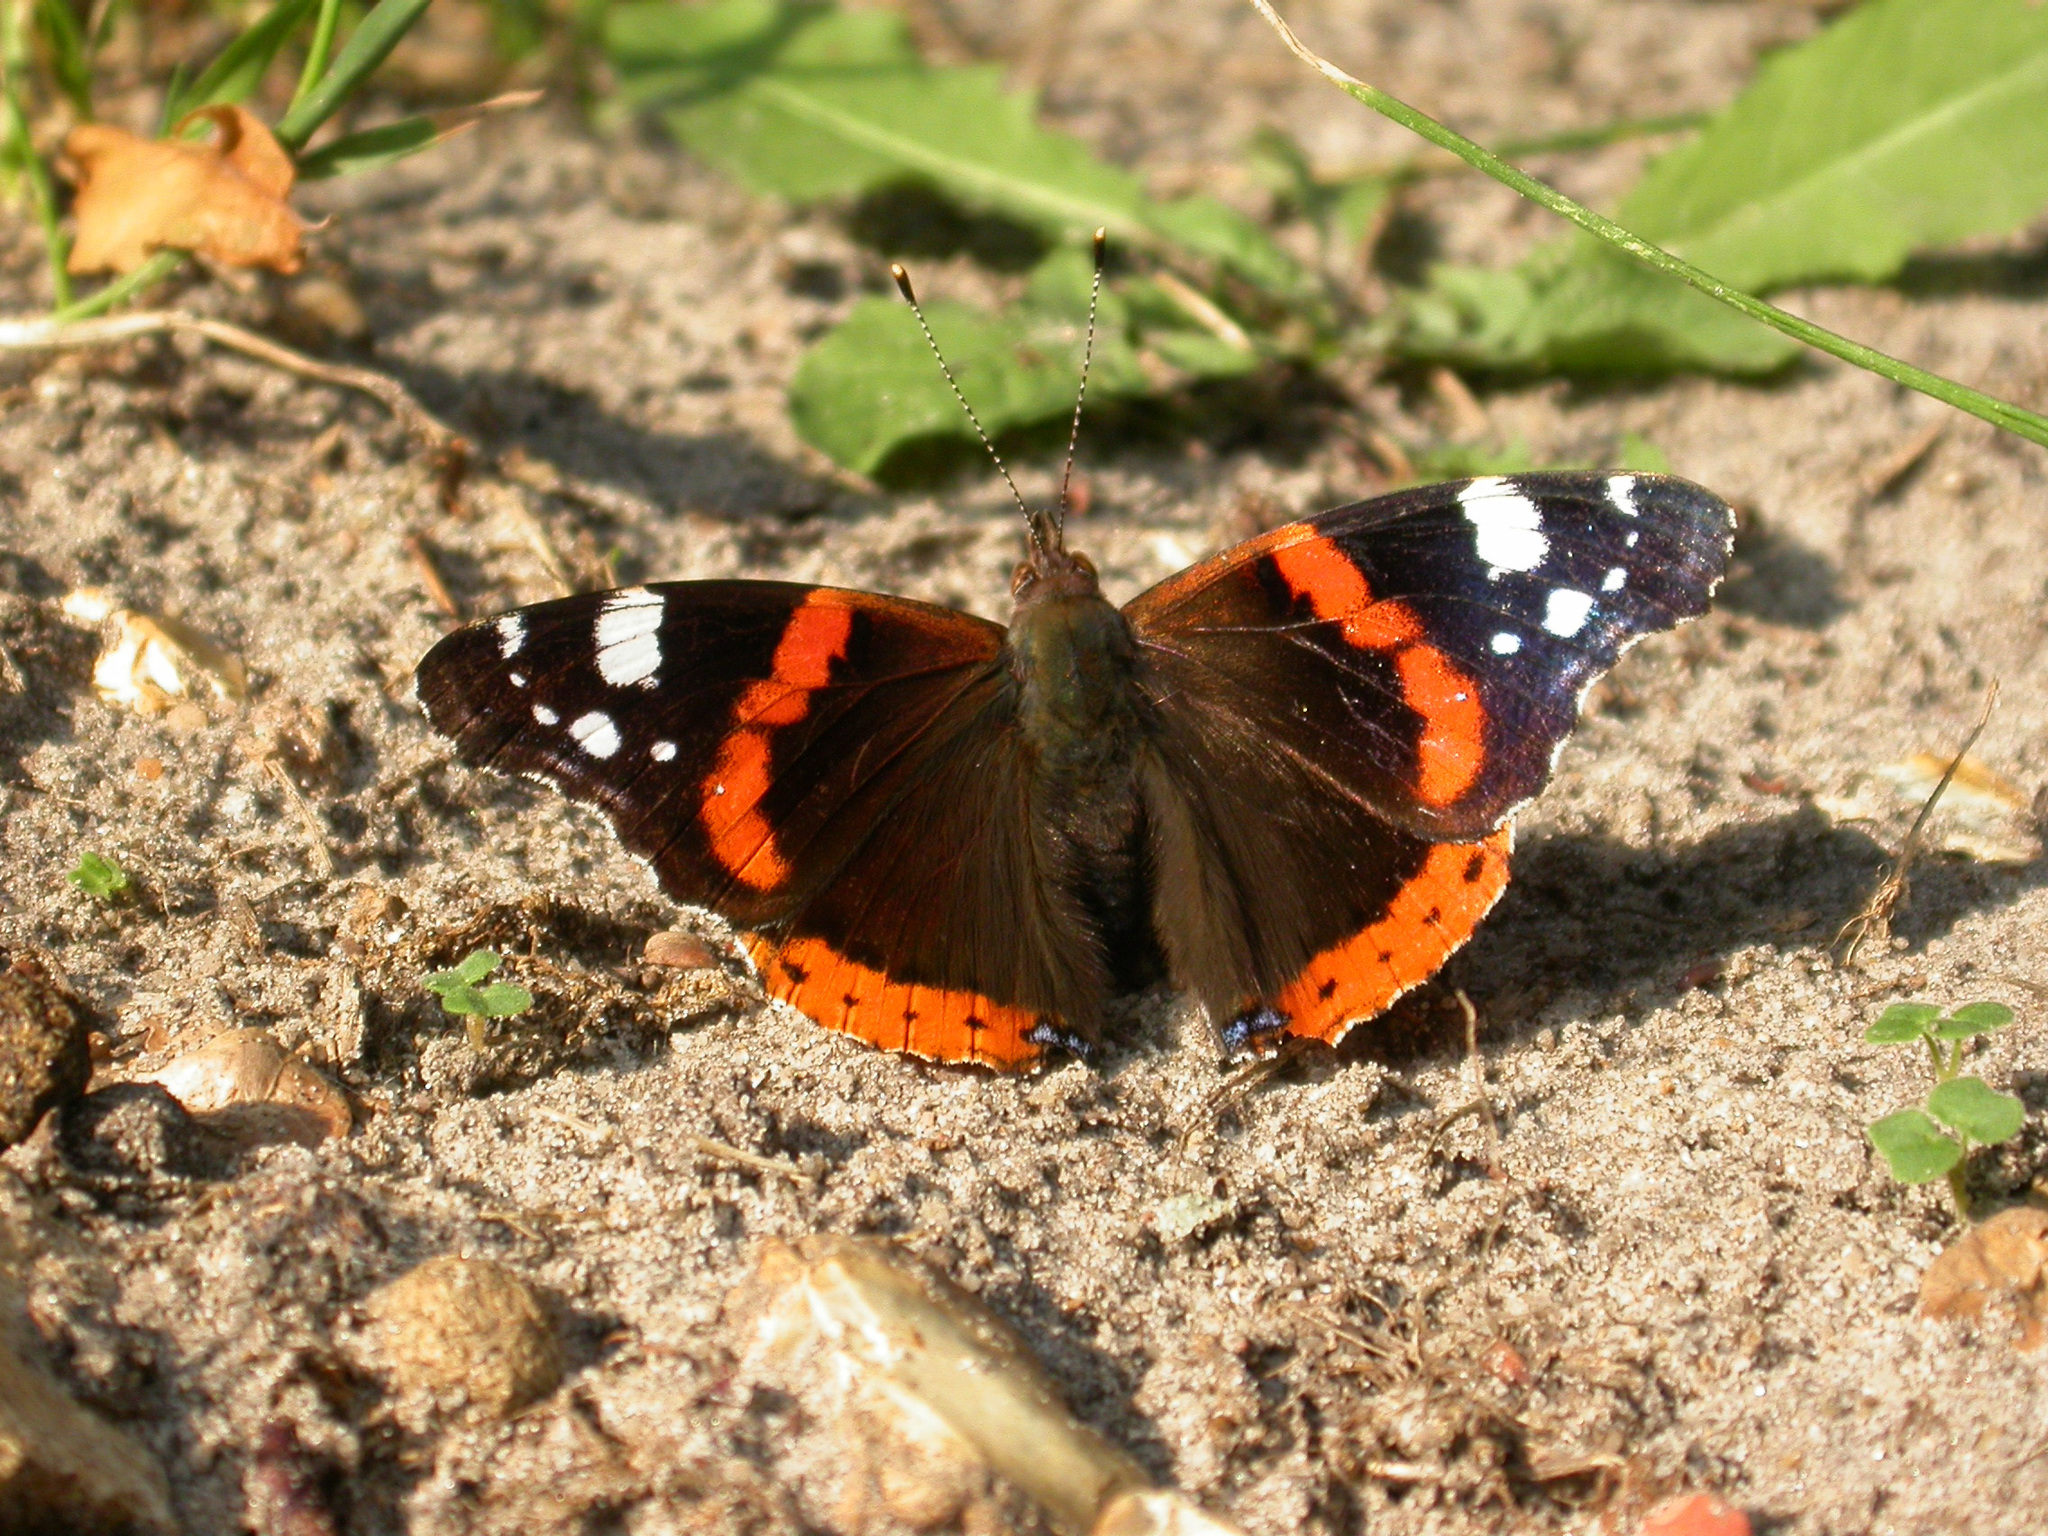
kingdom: Animalia
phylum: Arthropoda
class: Insecta
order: Lepidoptera
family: Nymphalidae
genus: Vanessa
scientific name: Vanessa atalanta
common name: Red admiral
